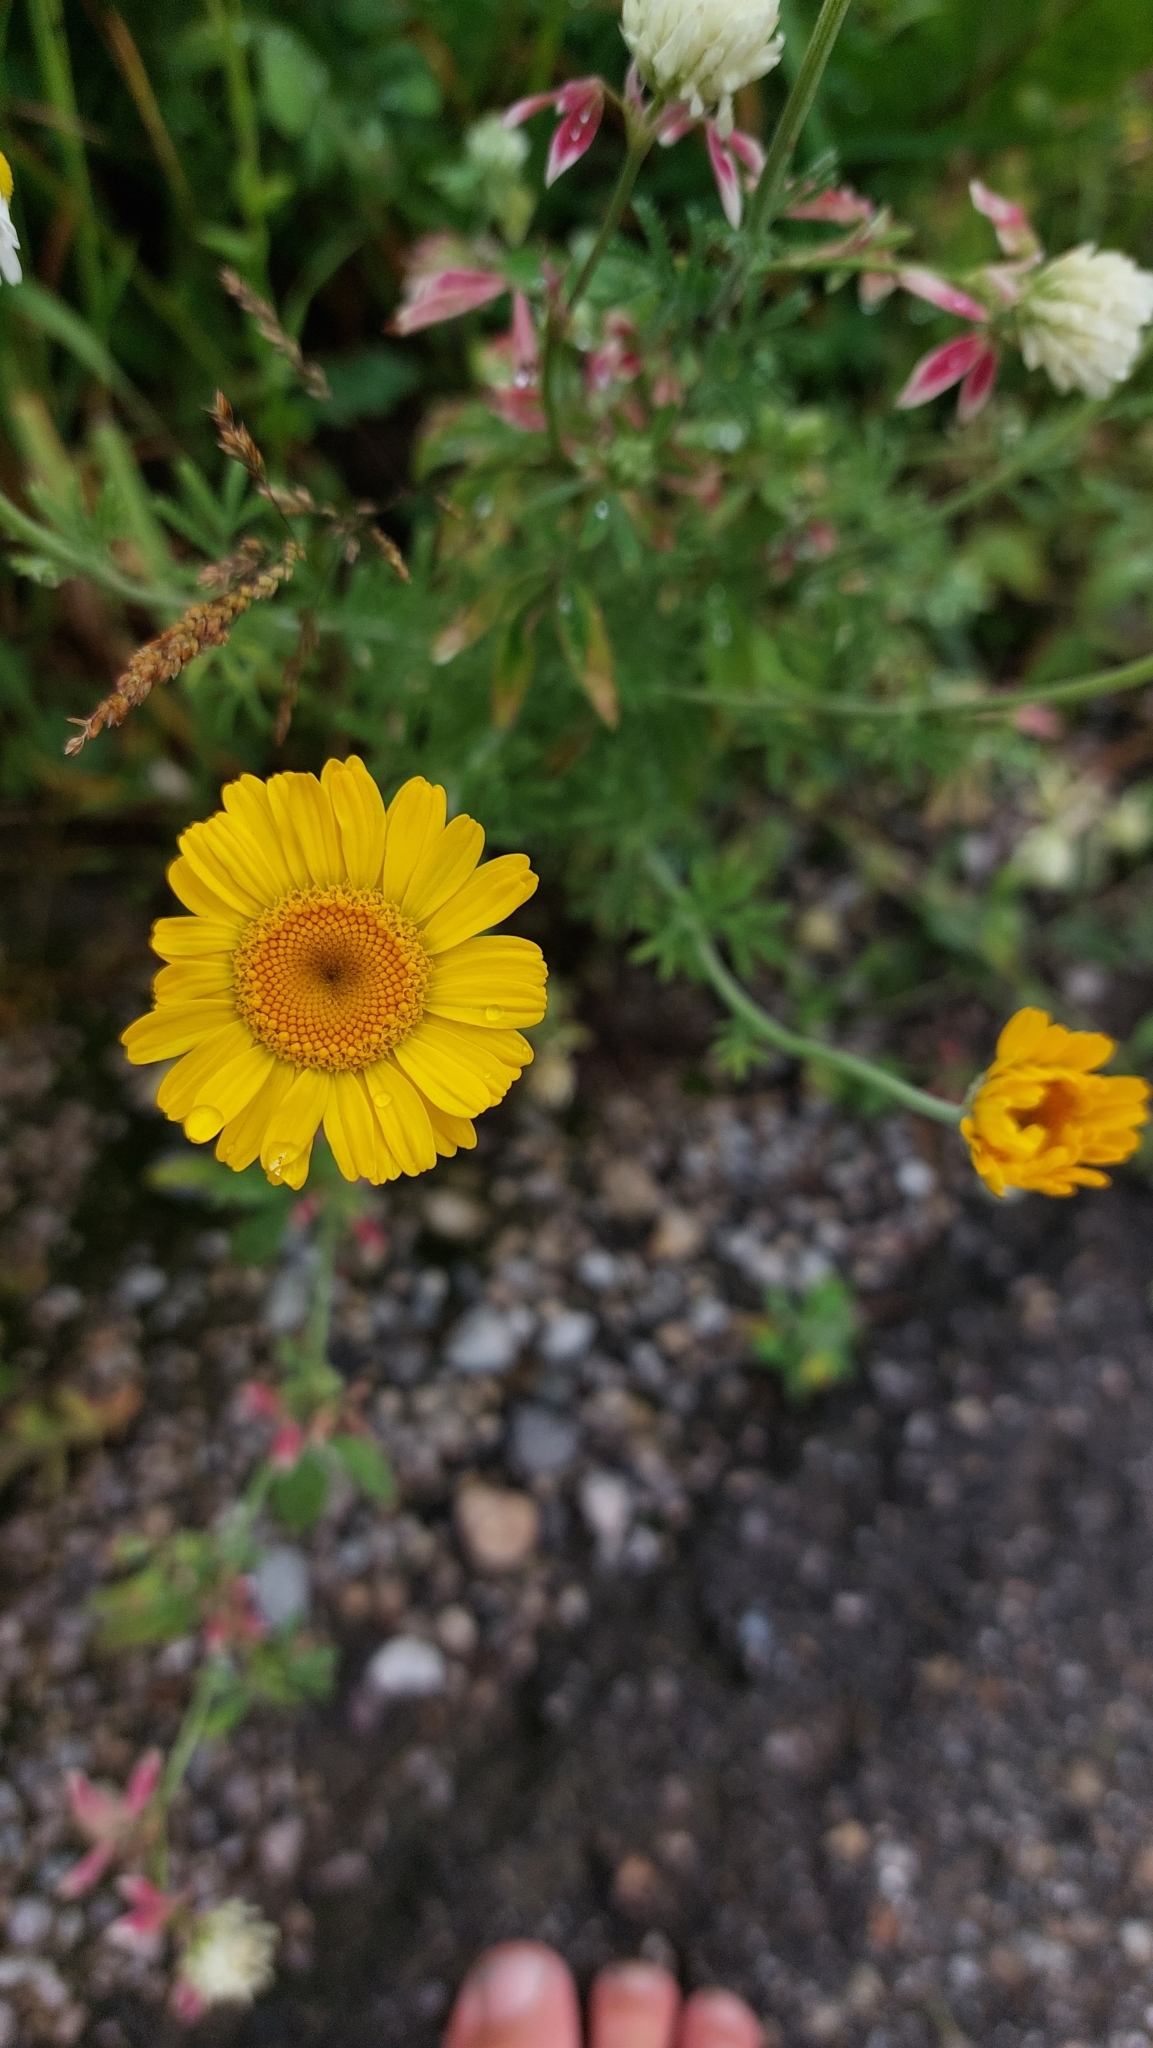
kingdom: Plantae
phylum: Tracheophyta
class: Magnoliopsida
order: Asterales
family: Asteraceae
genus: Cota
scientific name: Cota tinctoria
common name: Golden chamomile
